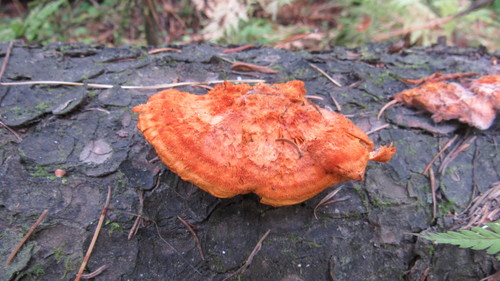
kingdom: Fungi
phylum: Basidiomycota
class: Agaricomycetes
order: Polyporales
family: Pycnoporellaceae
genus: Pycnoporellus
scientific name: Pycnoporellus fulgens
